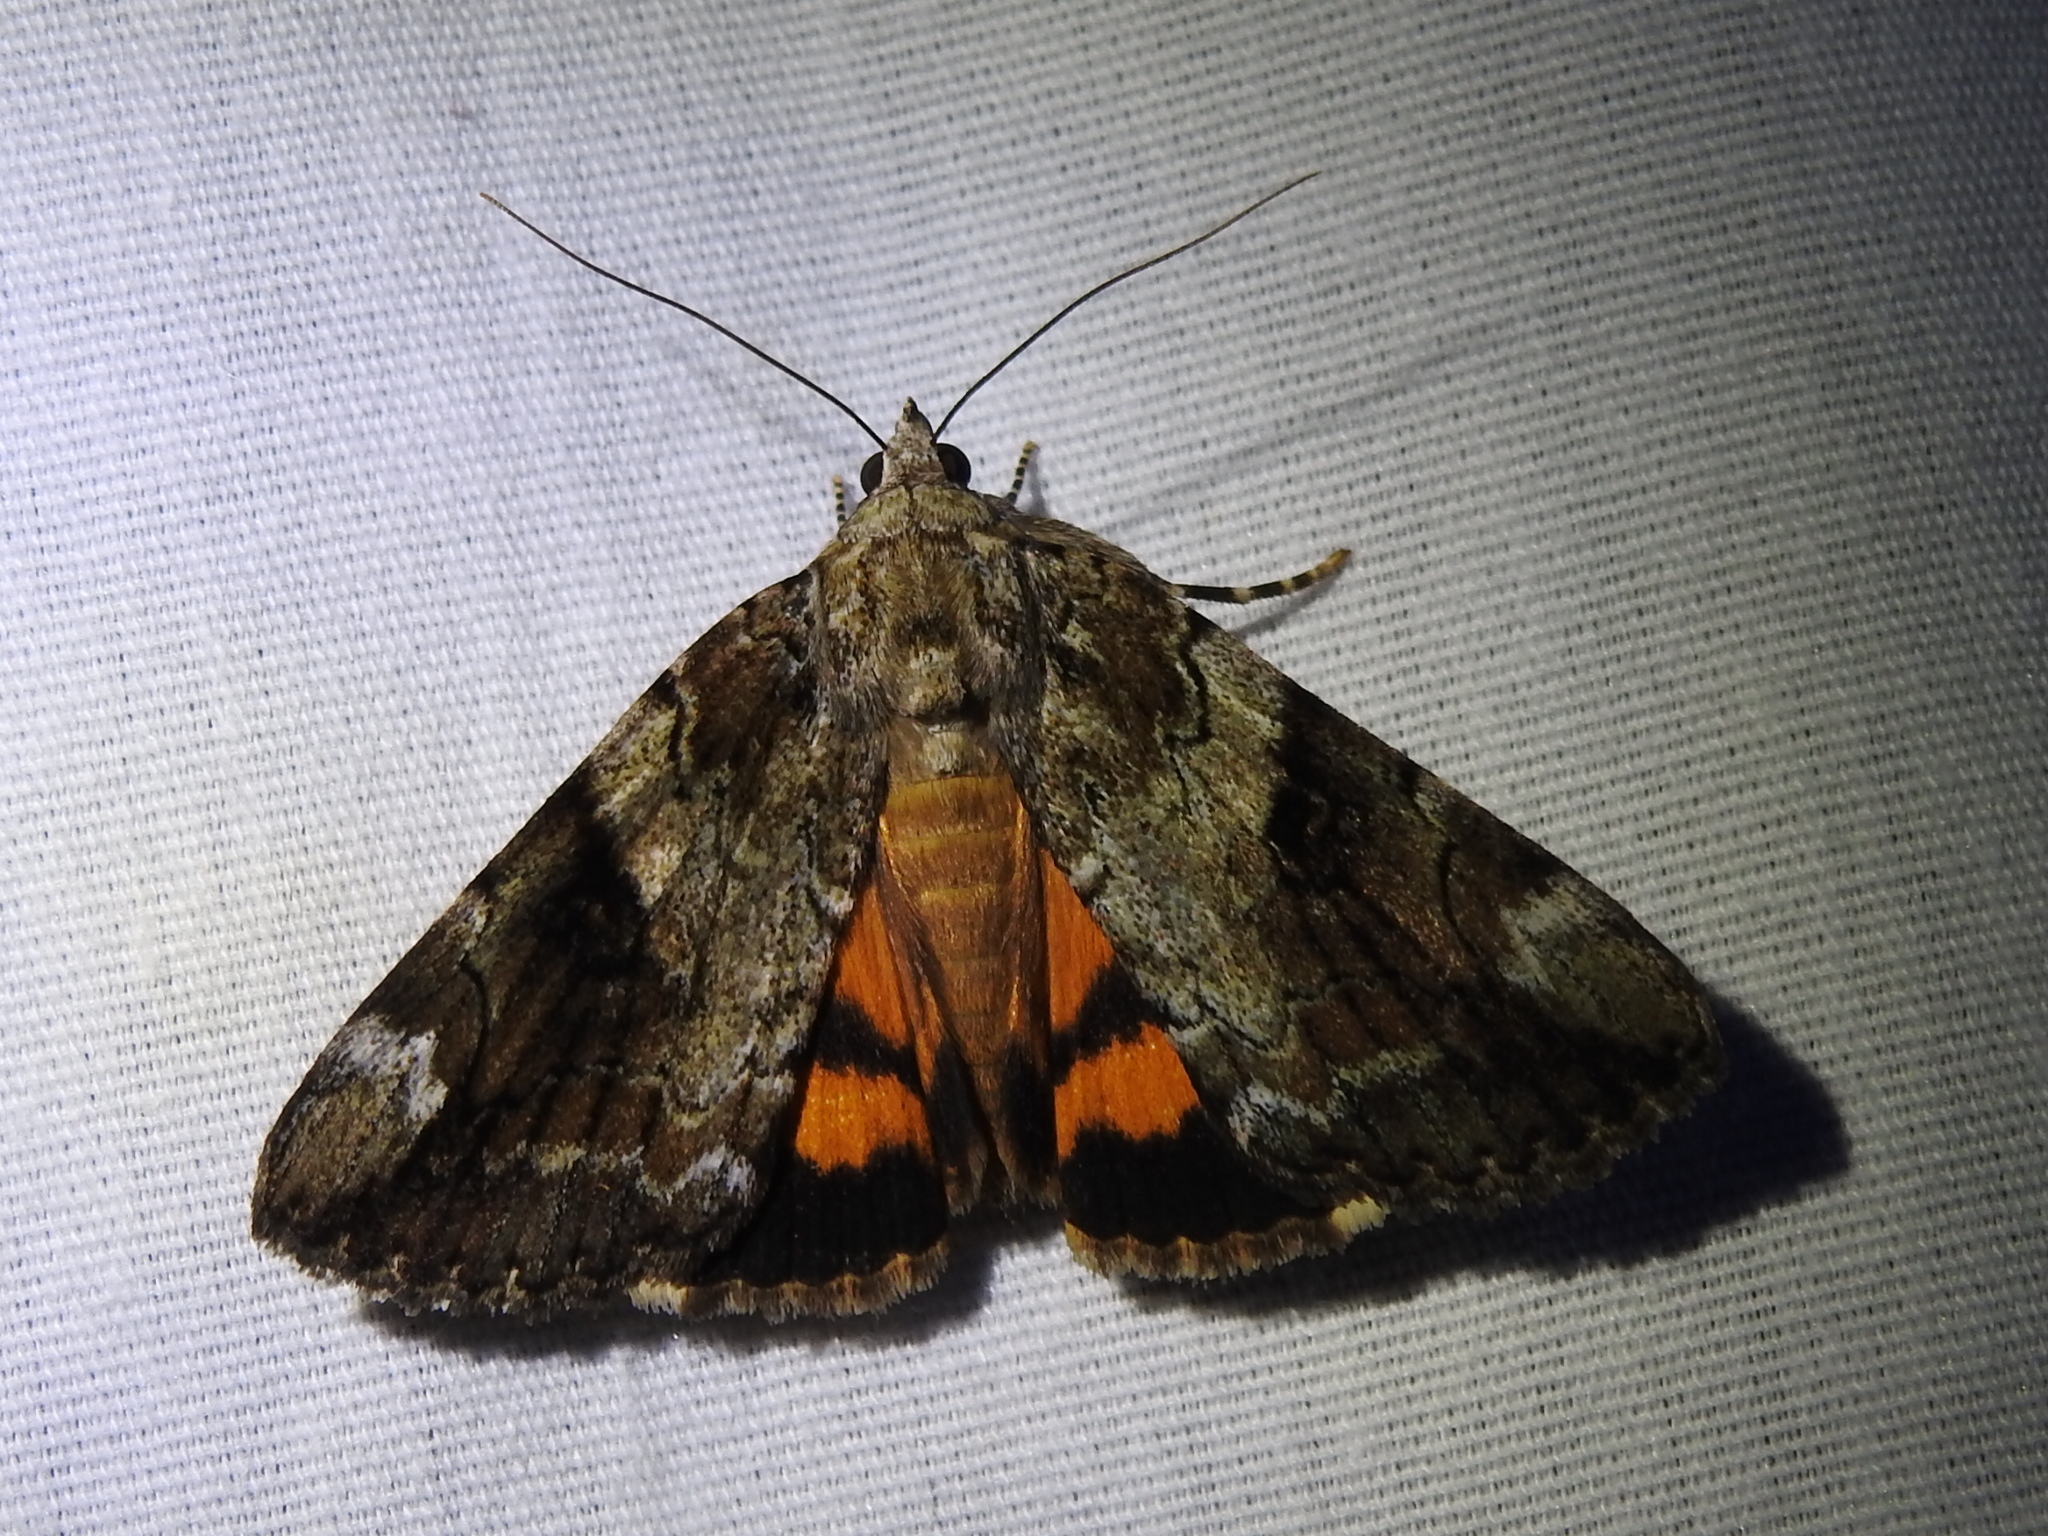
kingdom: Animalia
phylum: Arthropoda
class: Insecta
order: Lepidoptera
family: Erebidae
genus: Catocala
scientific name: Catocala micronympha
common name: Little nymph underwing
